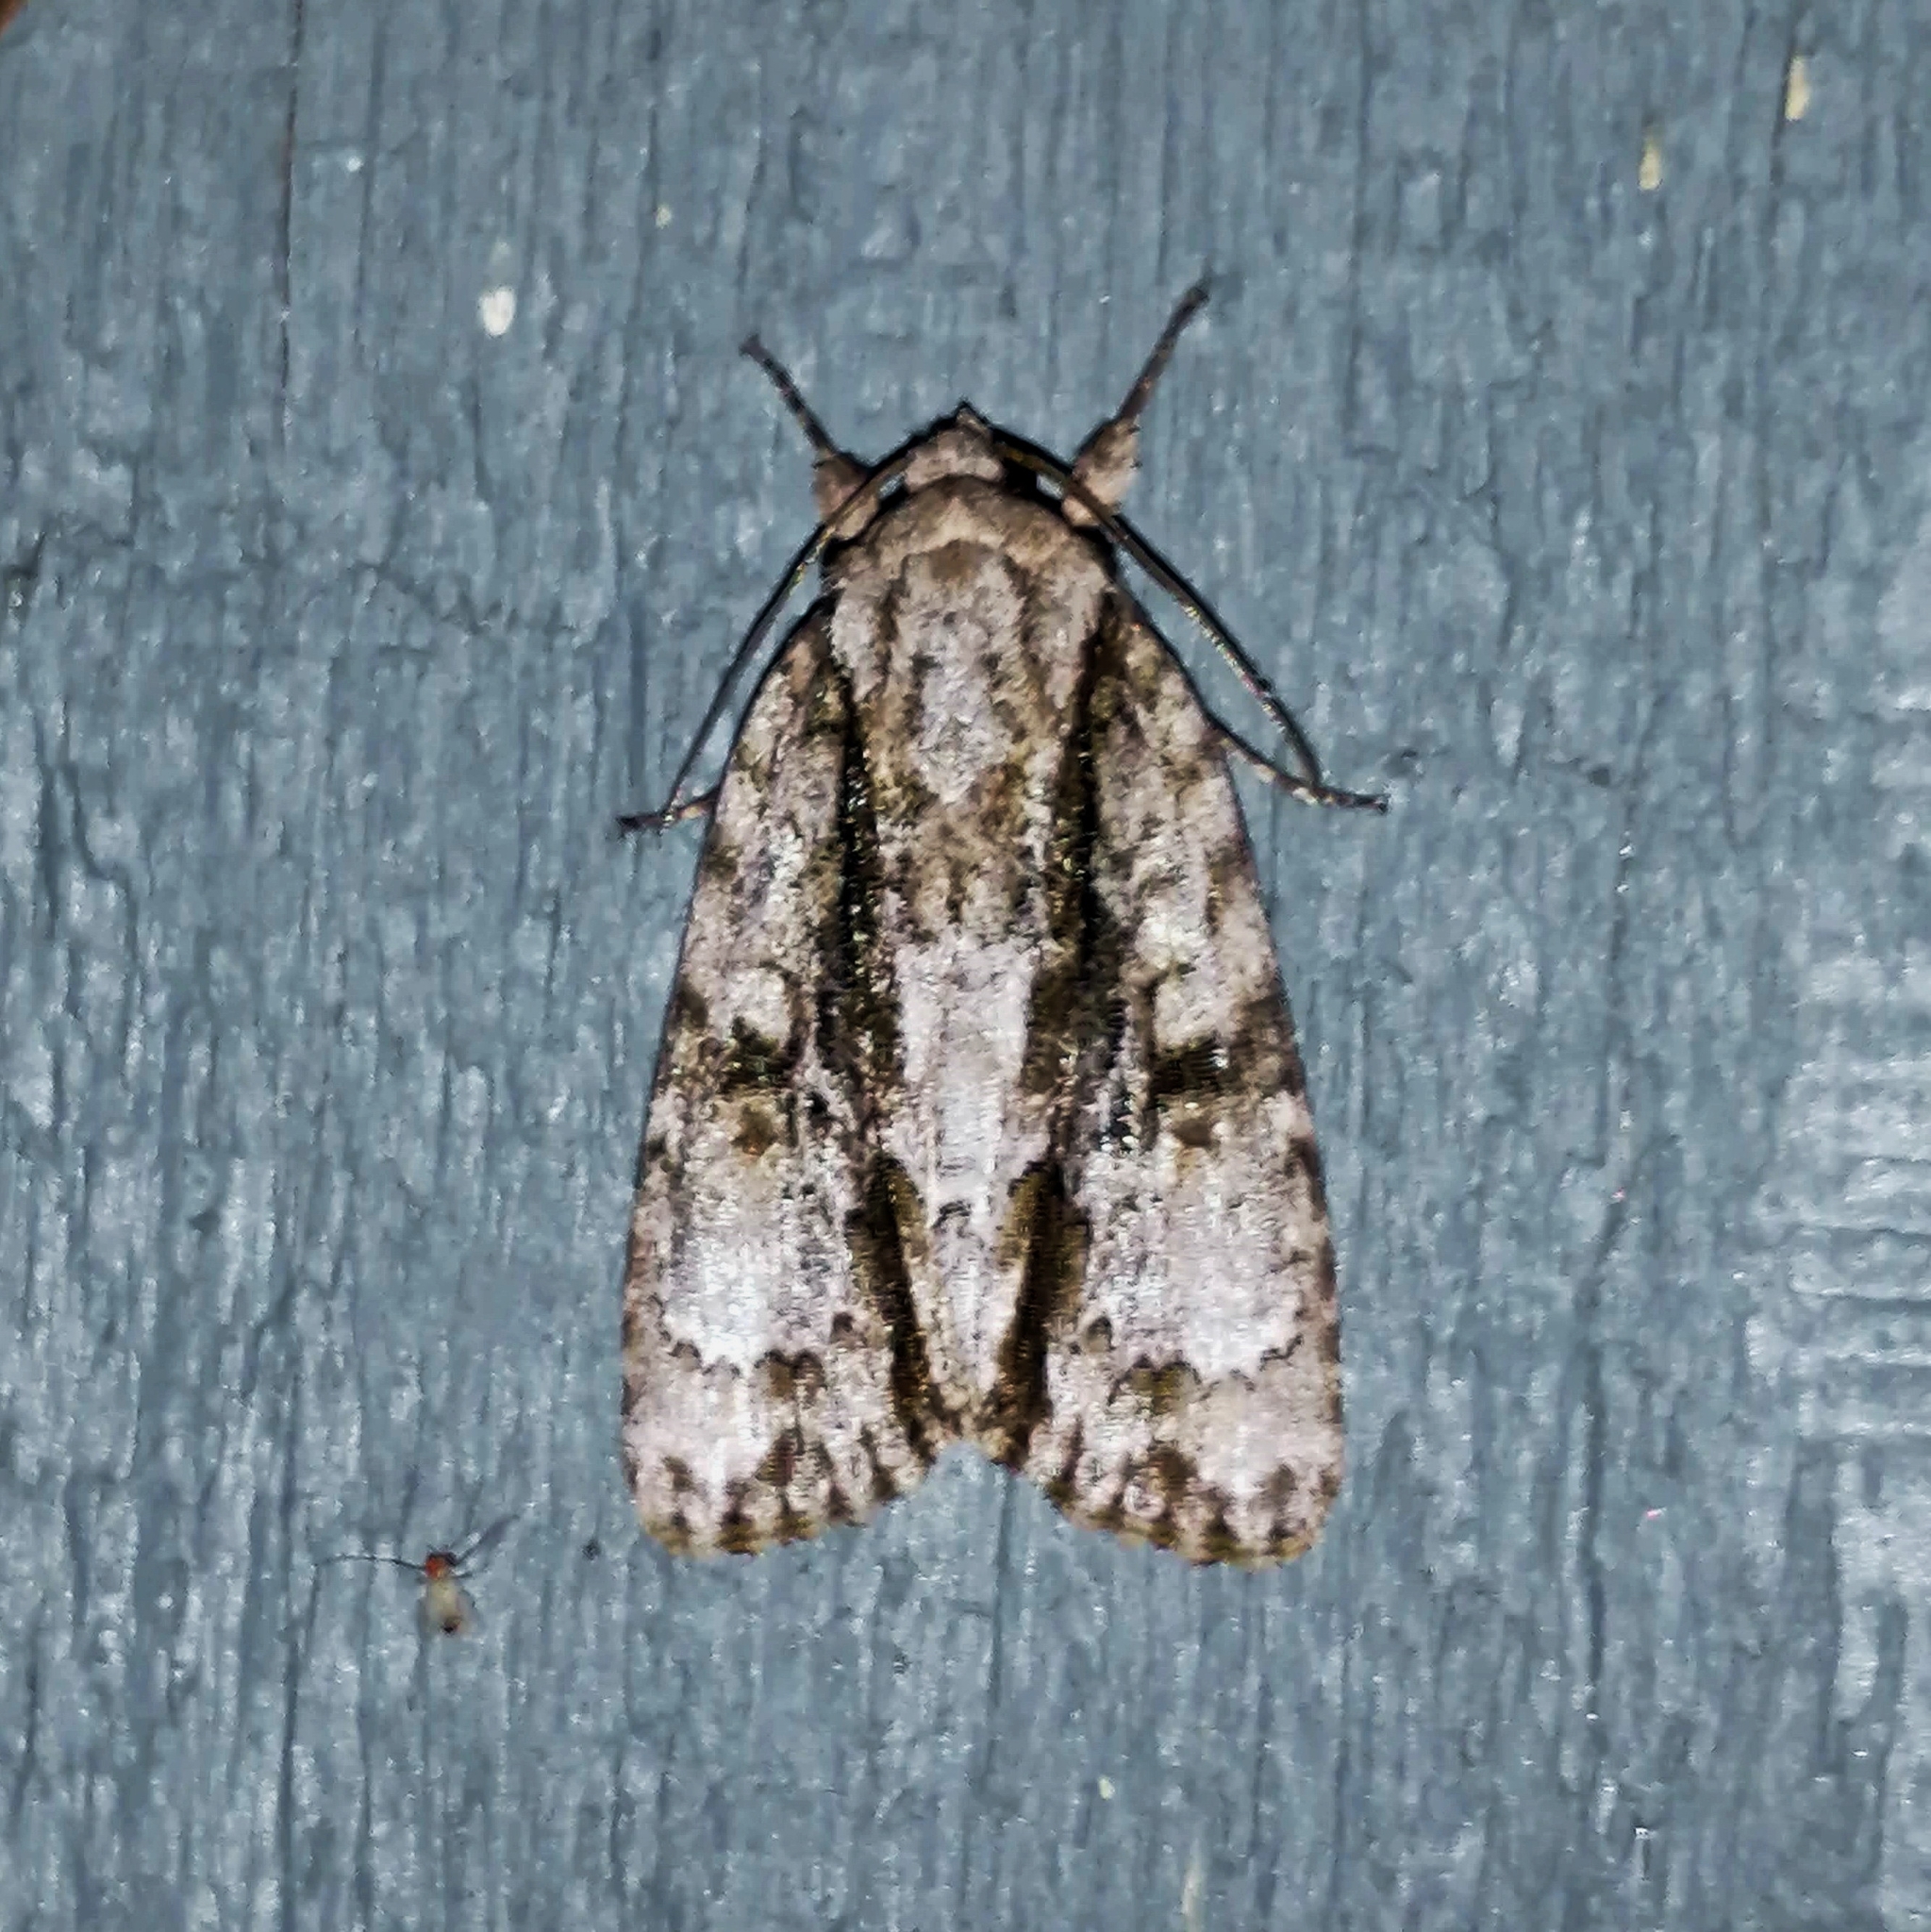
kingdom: Animalia
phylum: Arthropoda
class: Insecta
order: Lepidoptera
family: Noctuidae
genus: Acronicta
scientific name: Acronicta connecta
